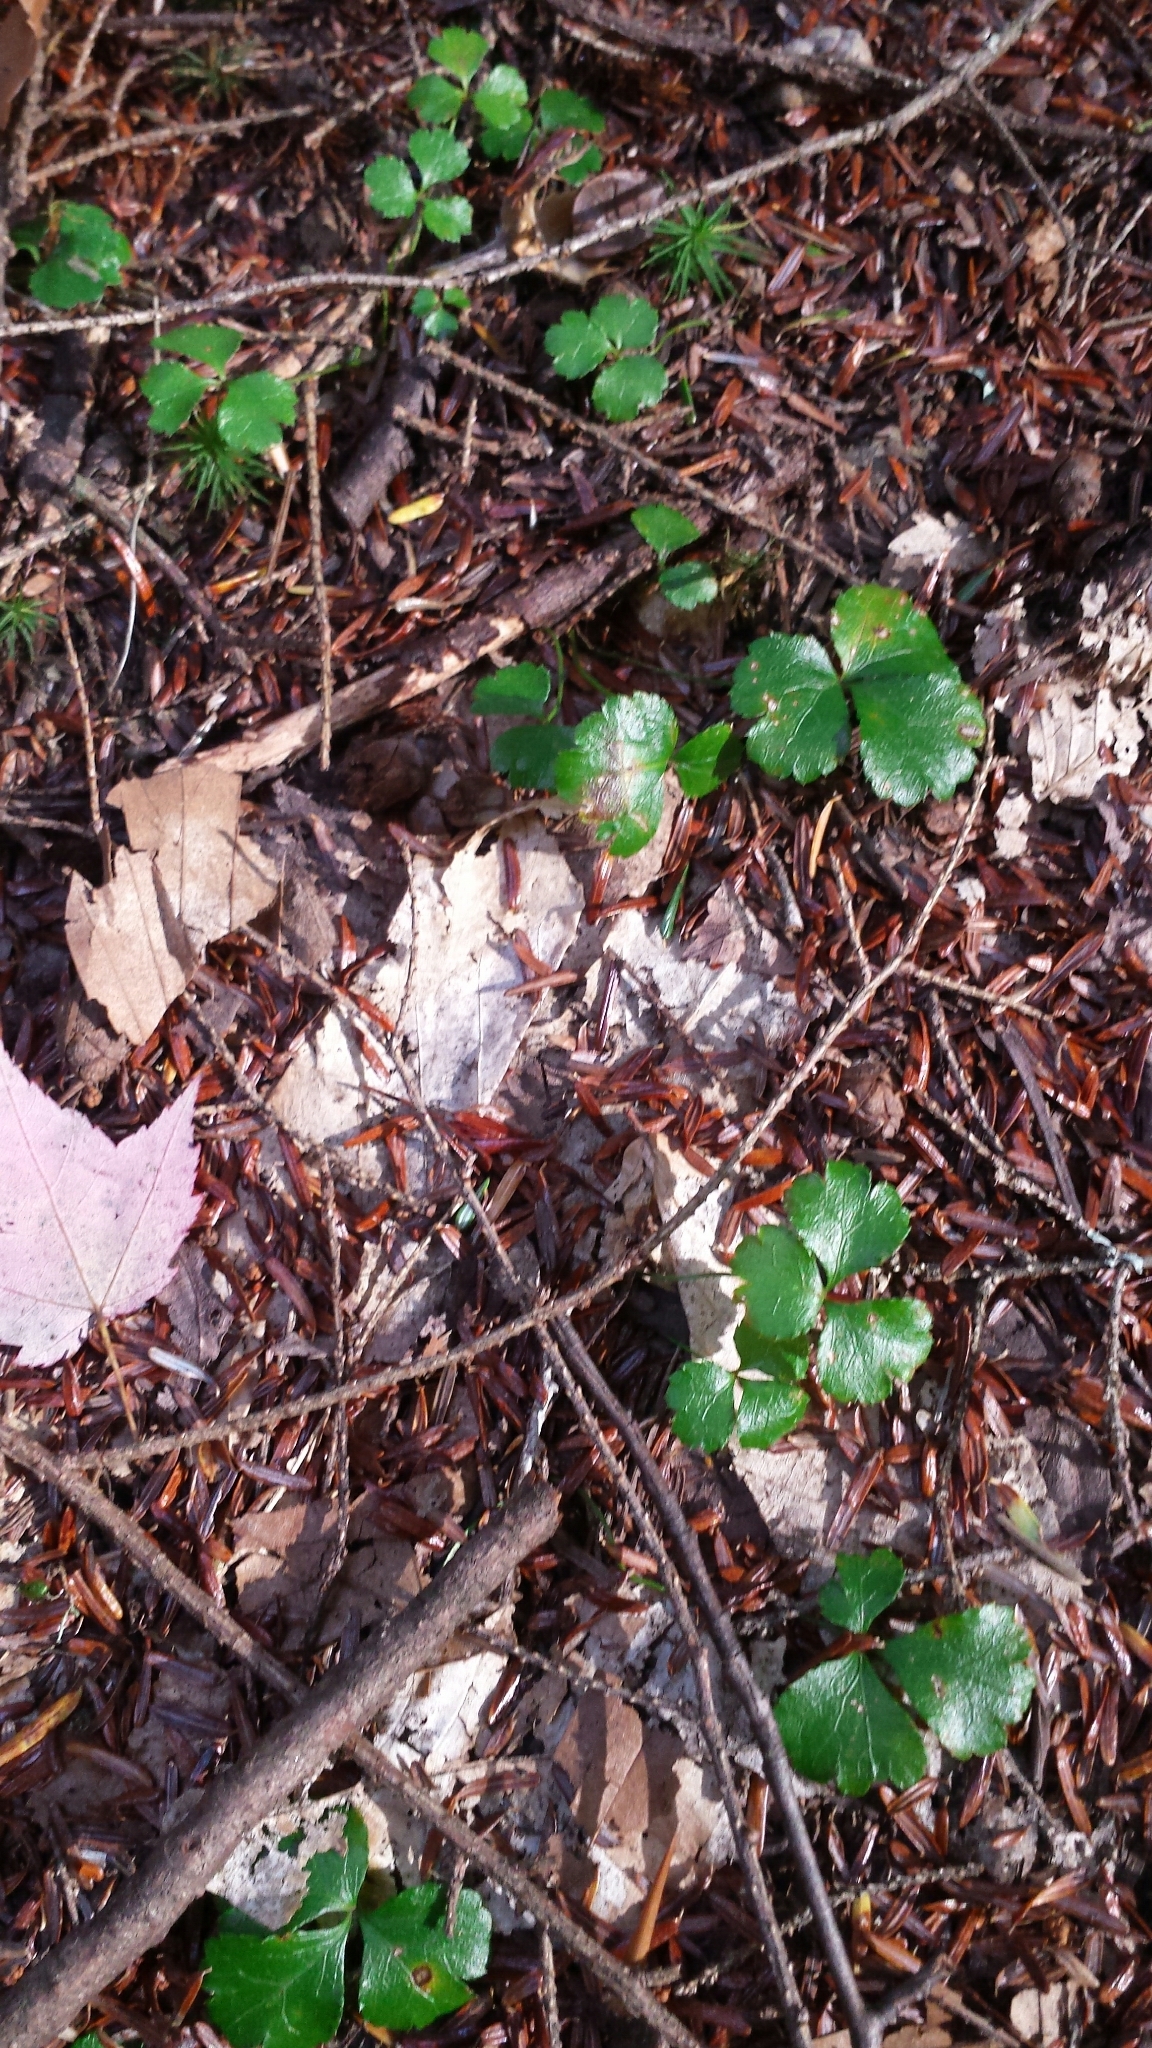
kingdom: Plantae
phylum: Tracheophyta
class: Magnoliopsida
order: Ranunculales
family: Ranunculaceae
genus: Coptis
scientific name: Coptis trifolia
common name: Canker-root
